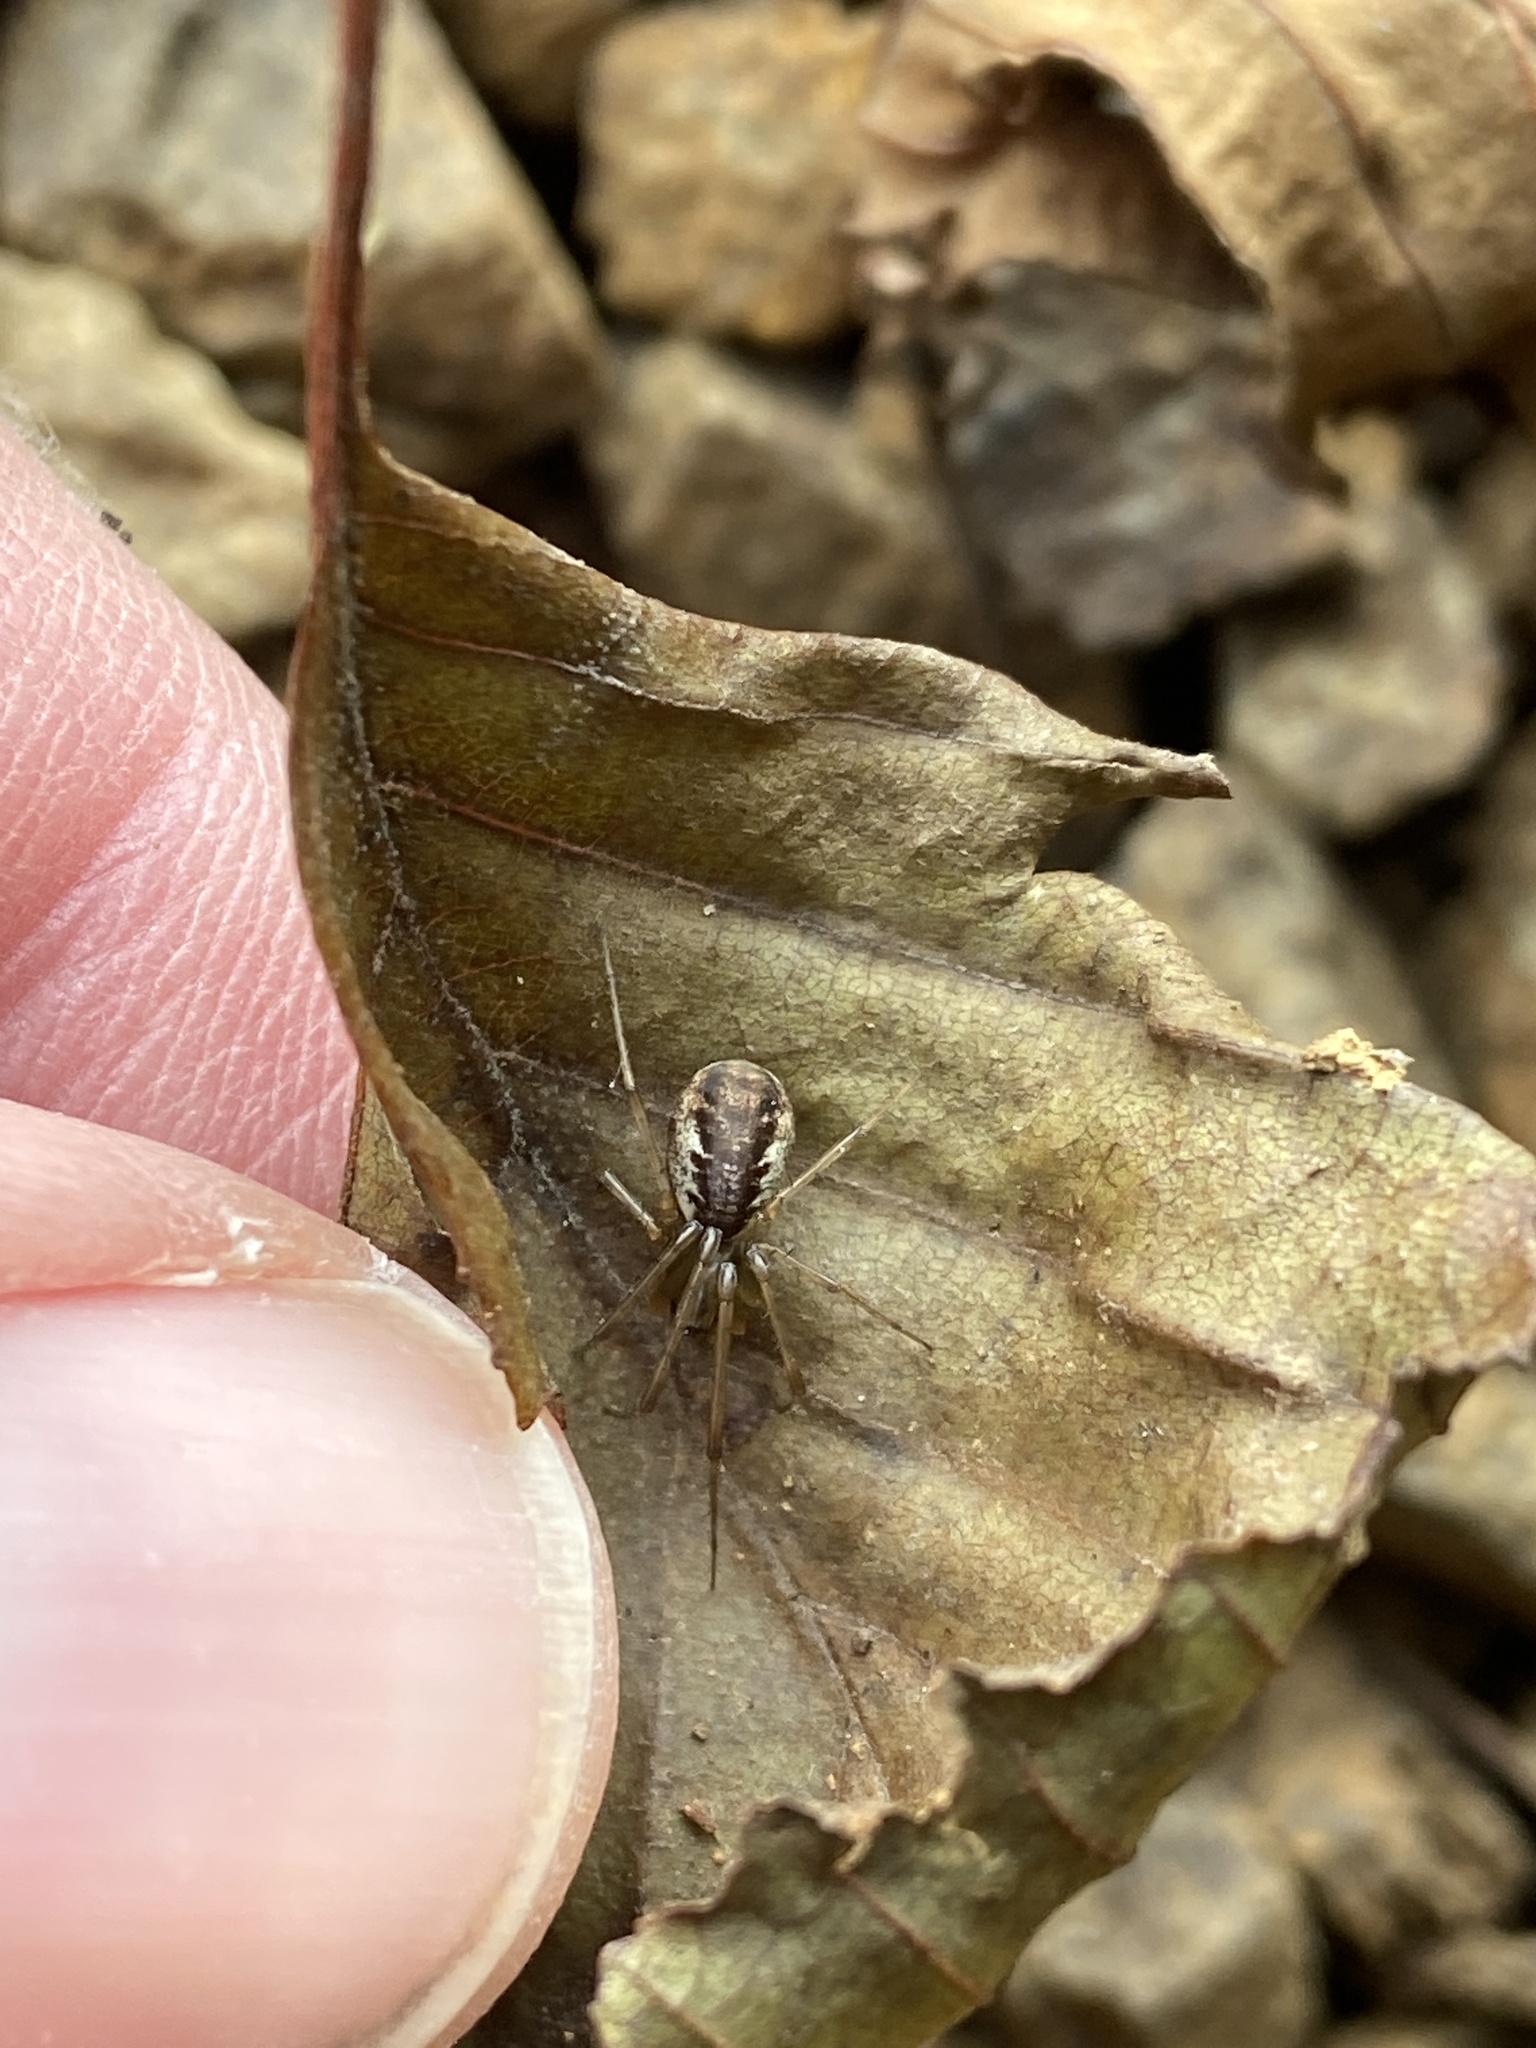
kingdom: Animalia
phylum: Arthropoda
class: Arachnida
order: Araneae
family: Linyphiidae
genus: Linyphia
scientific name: Linyphia triangularis
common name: Money spider
